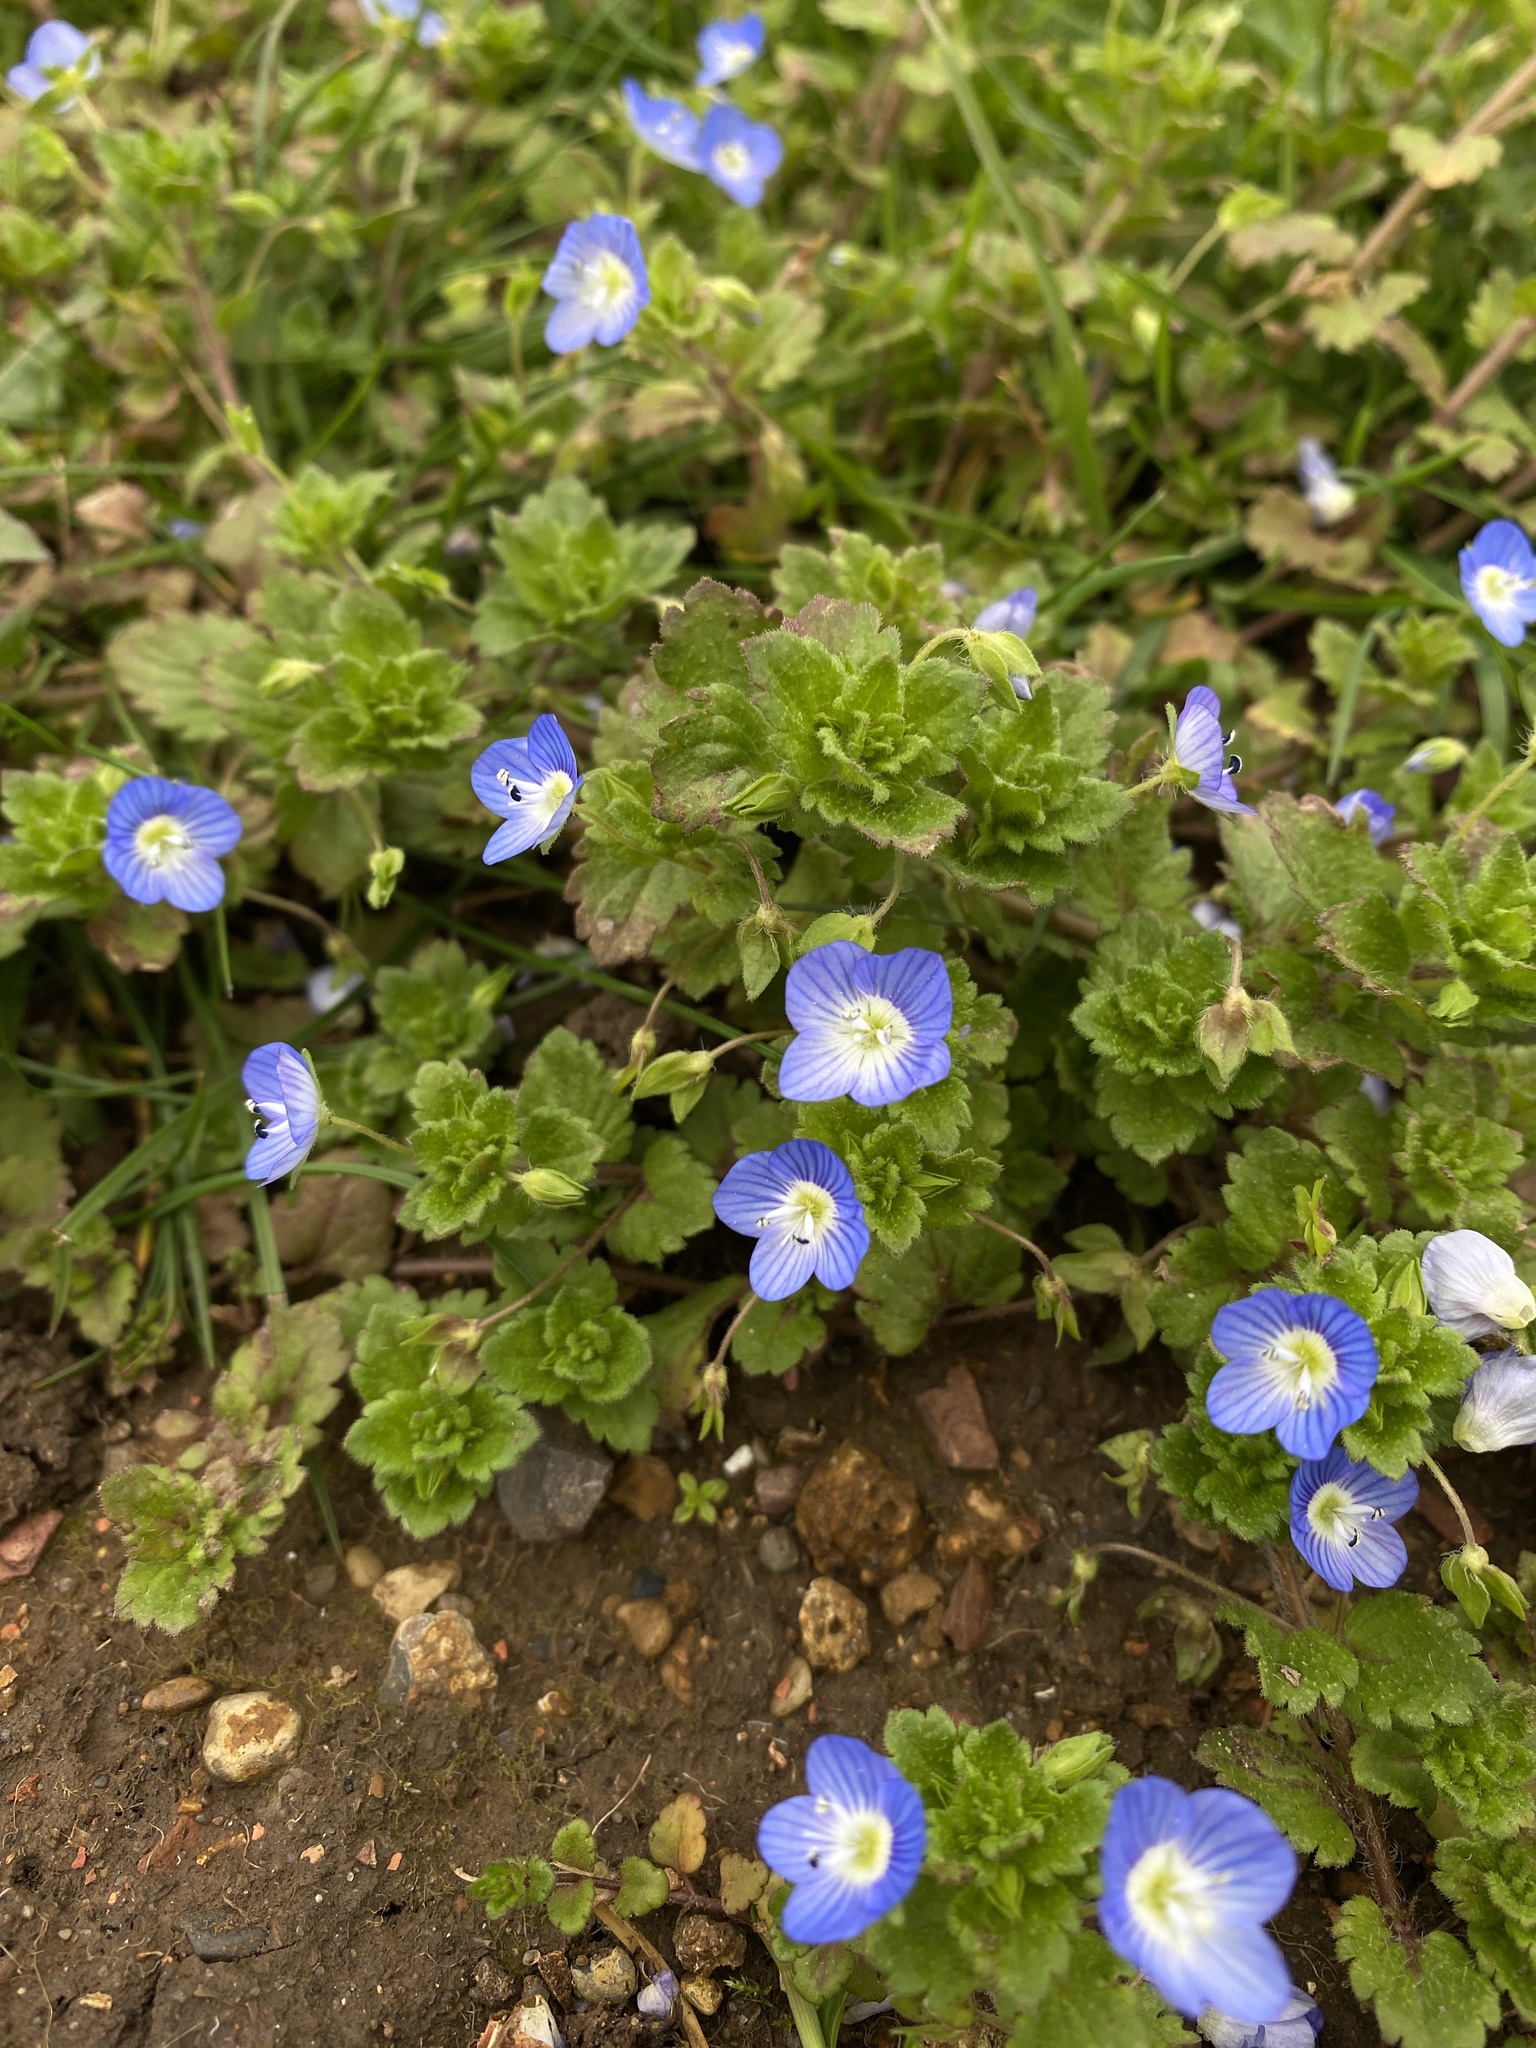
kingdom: Plantae
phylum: Tracheophyta
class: Magnoliopsida
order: Lamiales
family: Plantaginaceae
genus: Veronica
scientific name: Veronica persica
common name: Common field-speedwell
